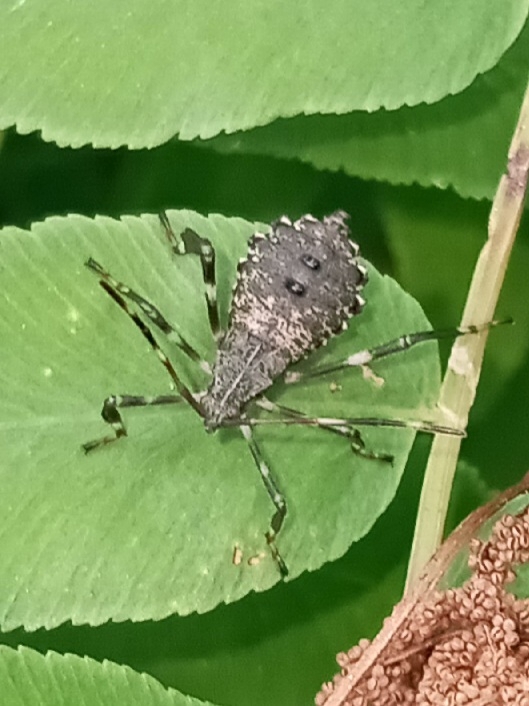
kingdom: Animalia
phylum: Arthropoda
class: Insecta
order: Hemiptera
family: Coreidae
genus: Acanthocephala
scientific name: Acanthocephala terminalis
